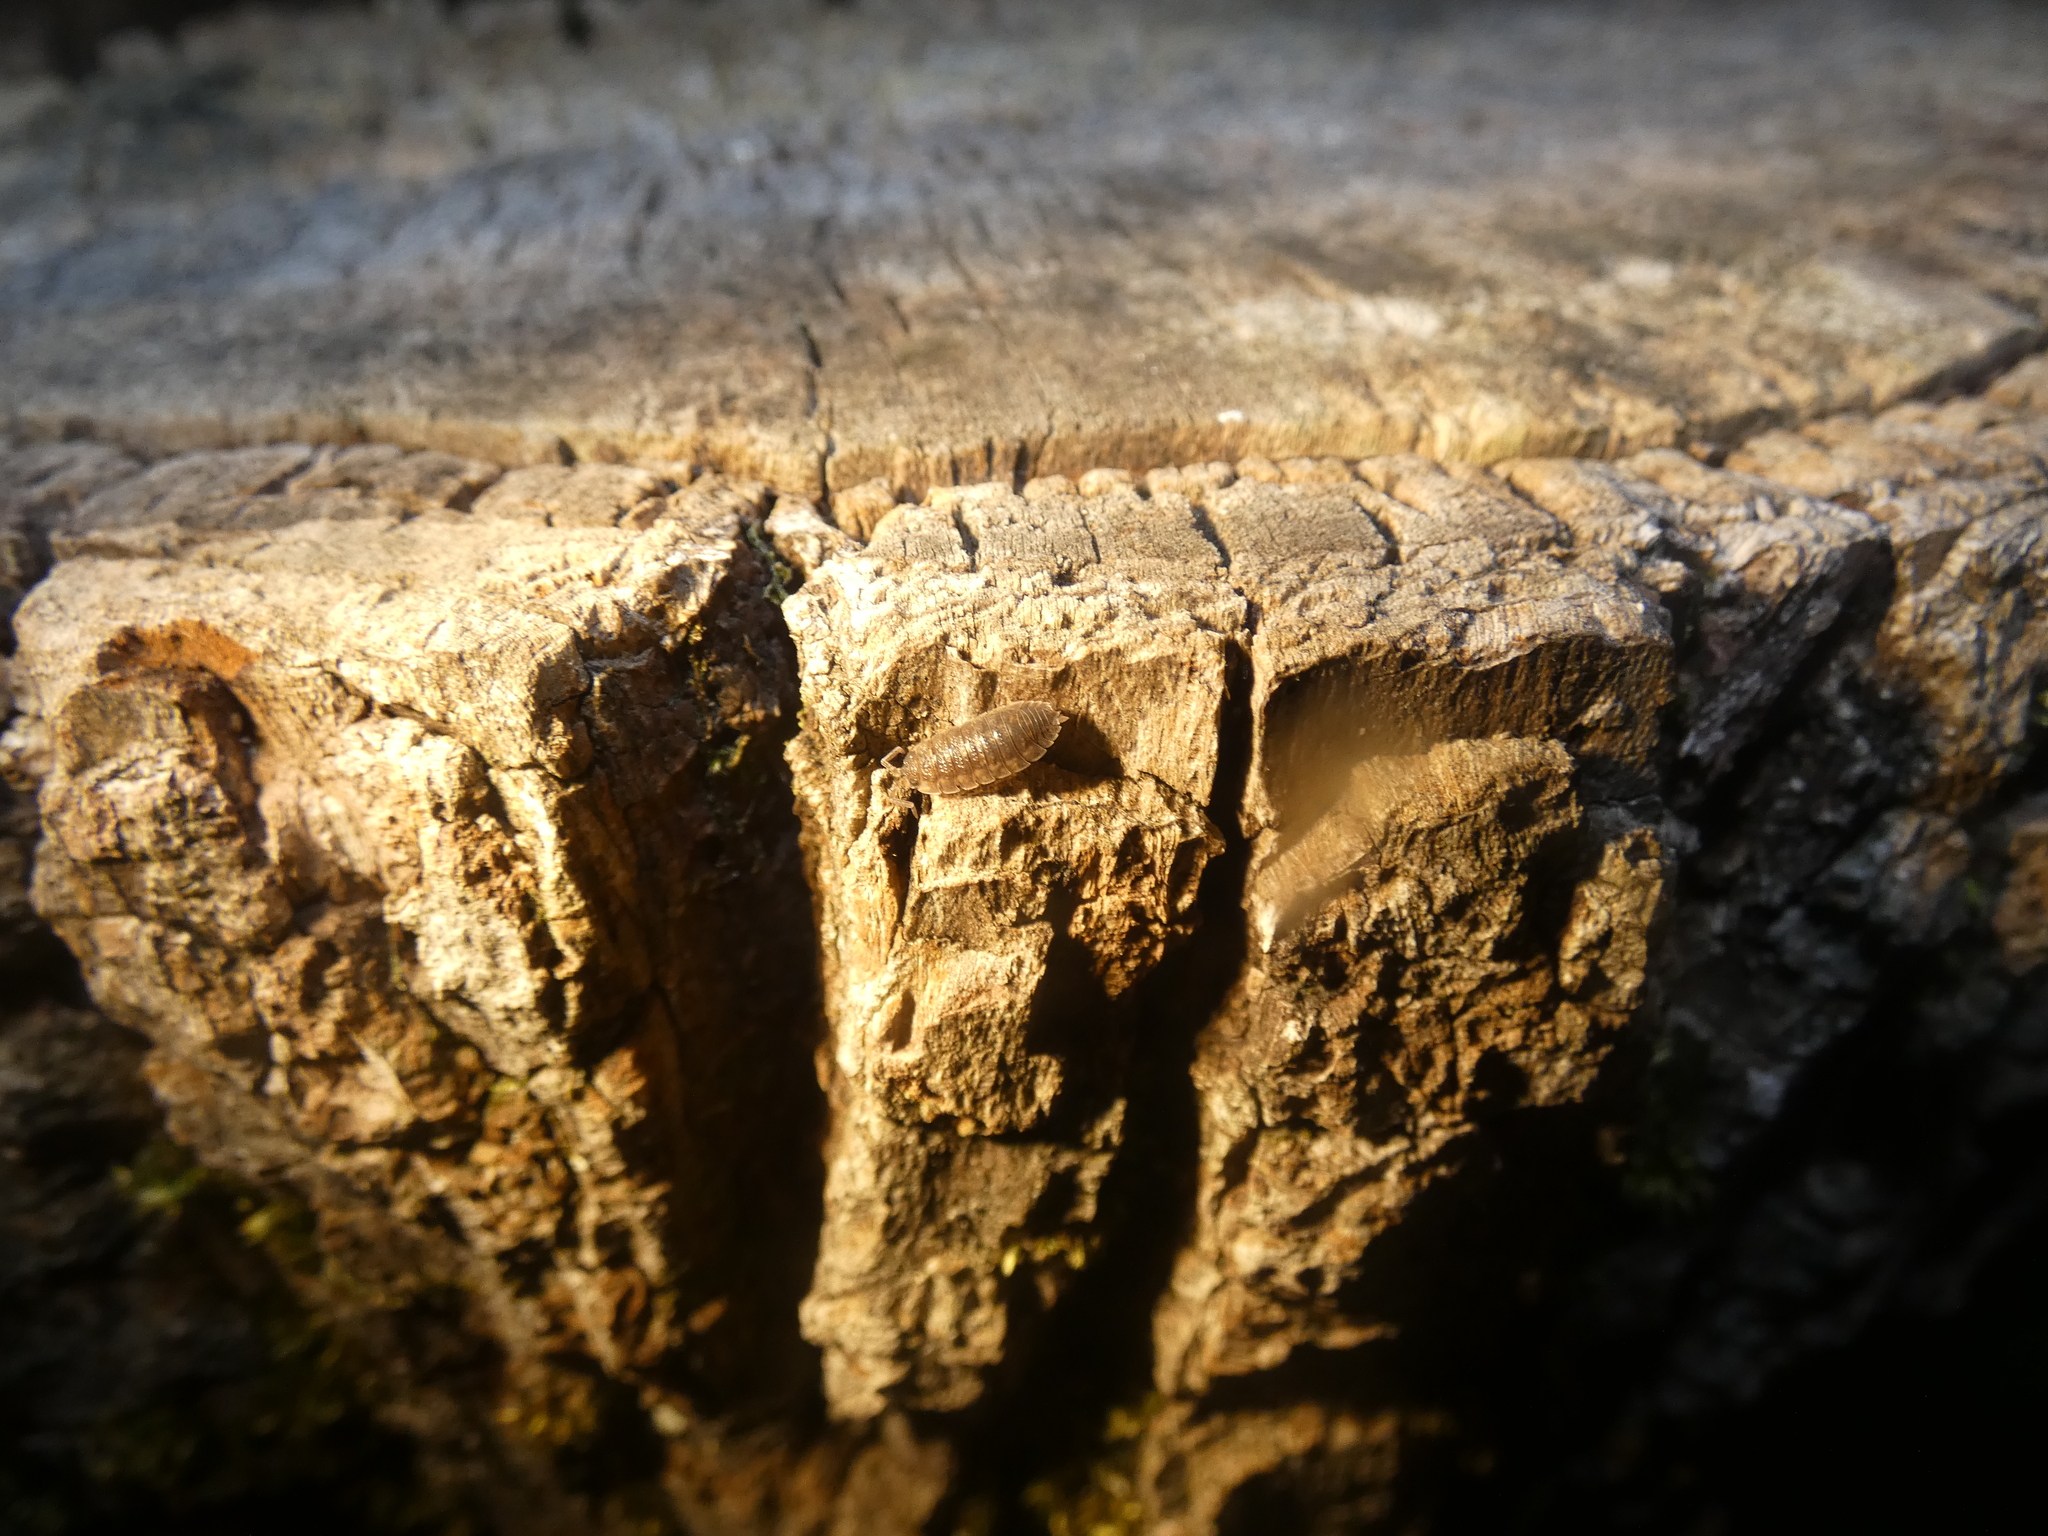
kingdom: Animalia
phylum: Arthropoda
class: Malacostraca
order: Isopoda
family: Porcellionidae
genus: Porcellio
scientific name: Porcellio scaber
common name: Common rough woodlouse
